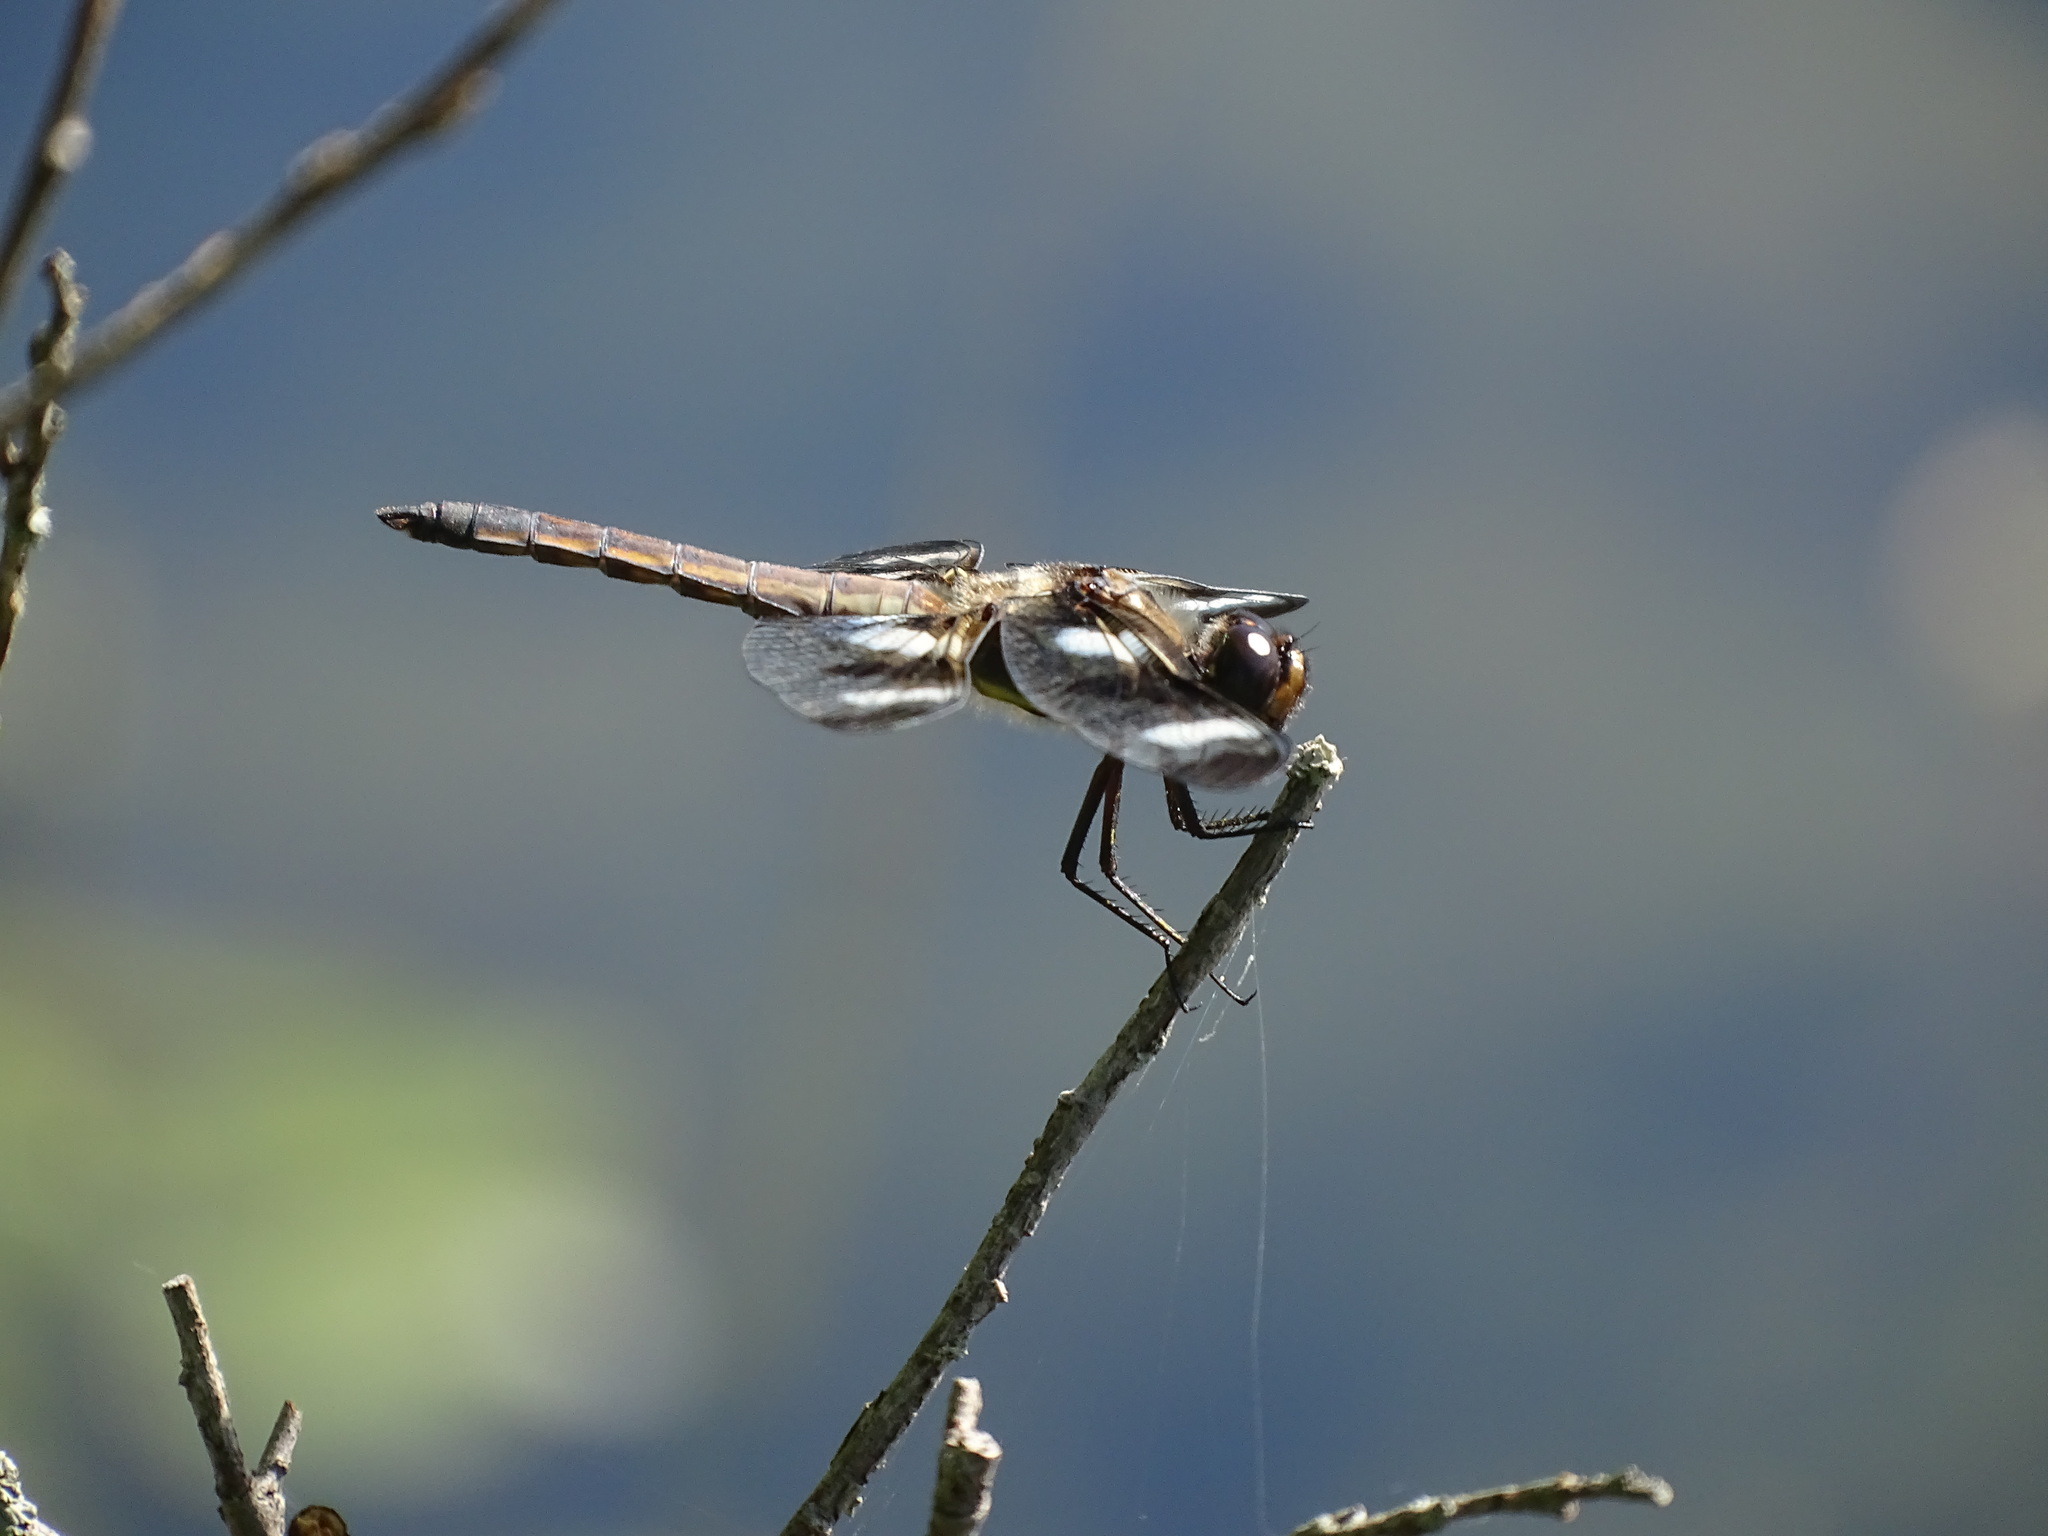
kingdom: Animalia
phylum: Arthropoda
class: Insecta
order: Odonata
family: Libellulidae
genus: Libellula
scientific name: Libellula pulchella
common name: Twelve-spotted skimmer
